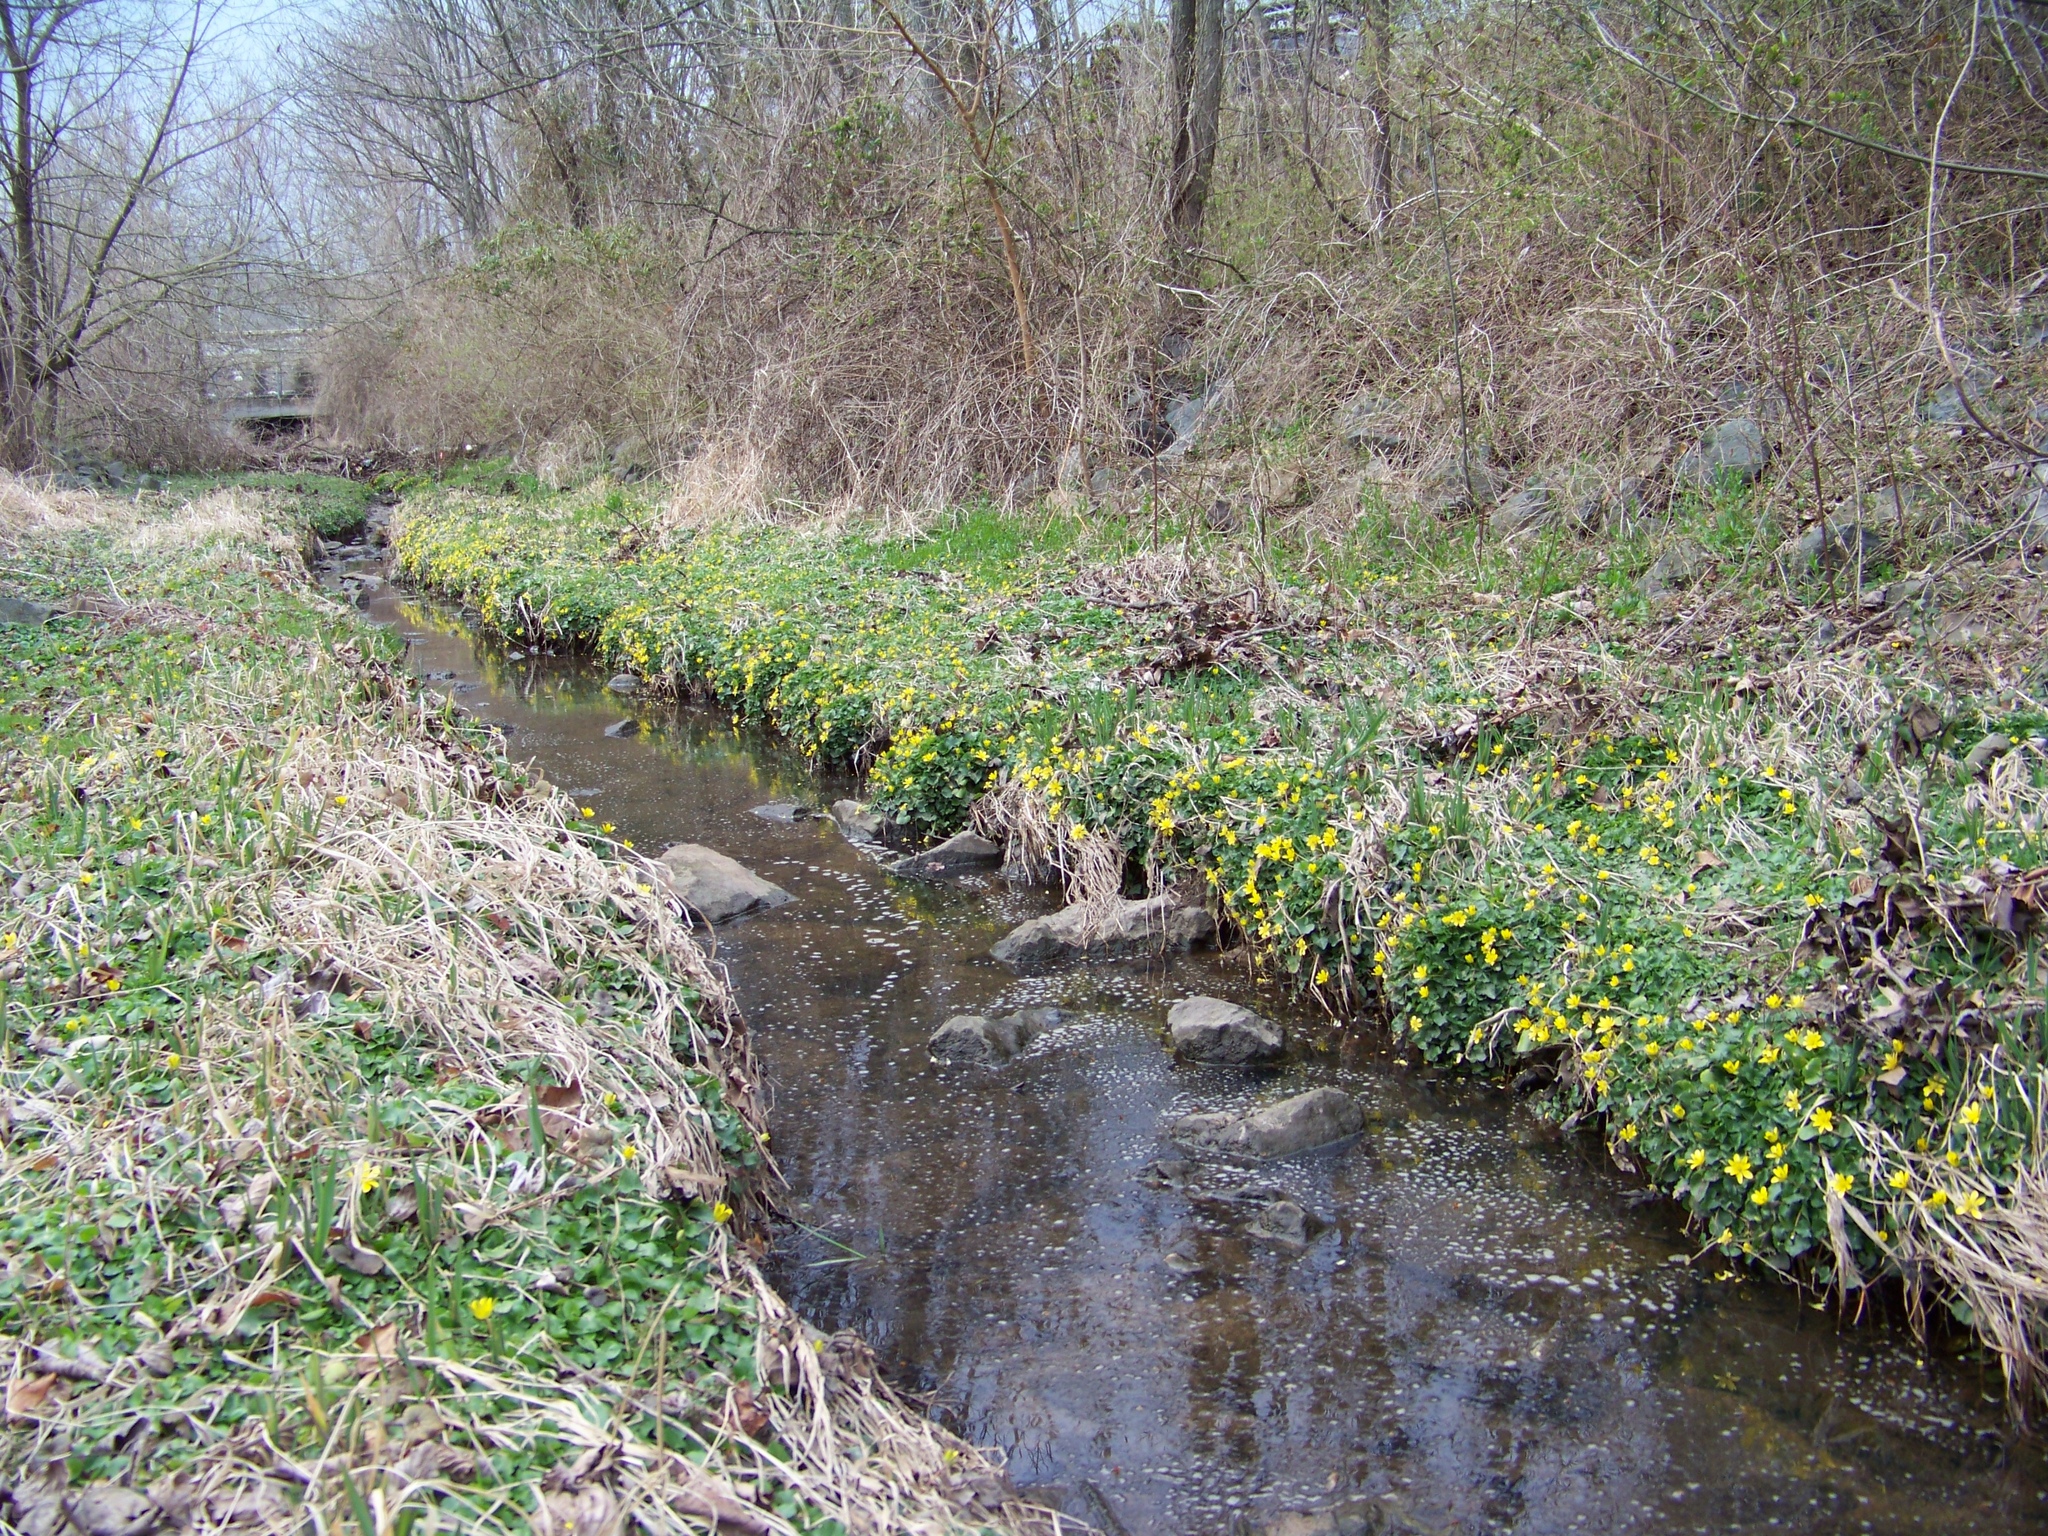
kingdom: Plantae
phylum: Tracheophyta
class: Magnoliopsida
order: Ranunculales
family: Ranunculaceae
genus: Ficaria
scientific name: Ficaria verna
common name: Lesser celandine
